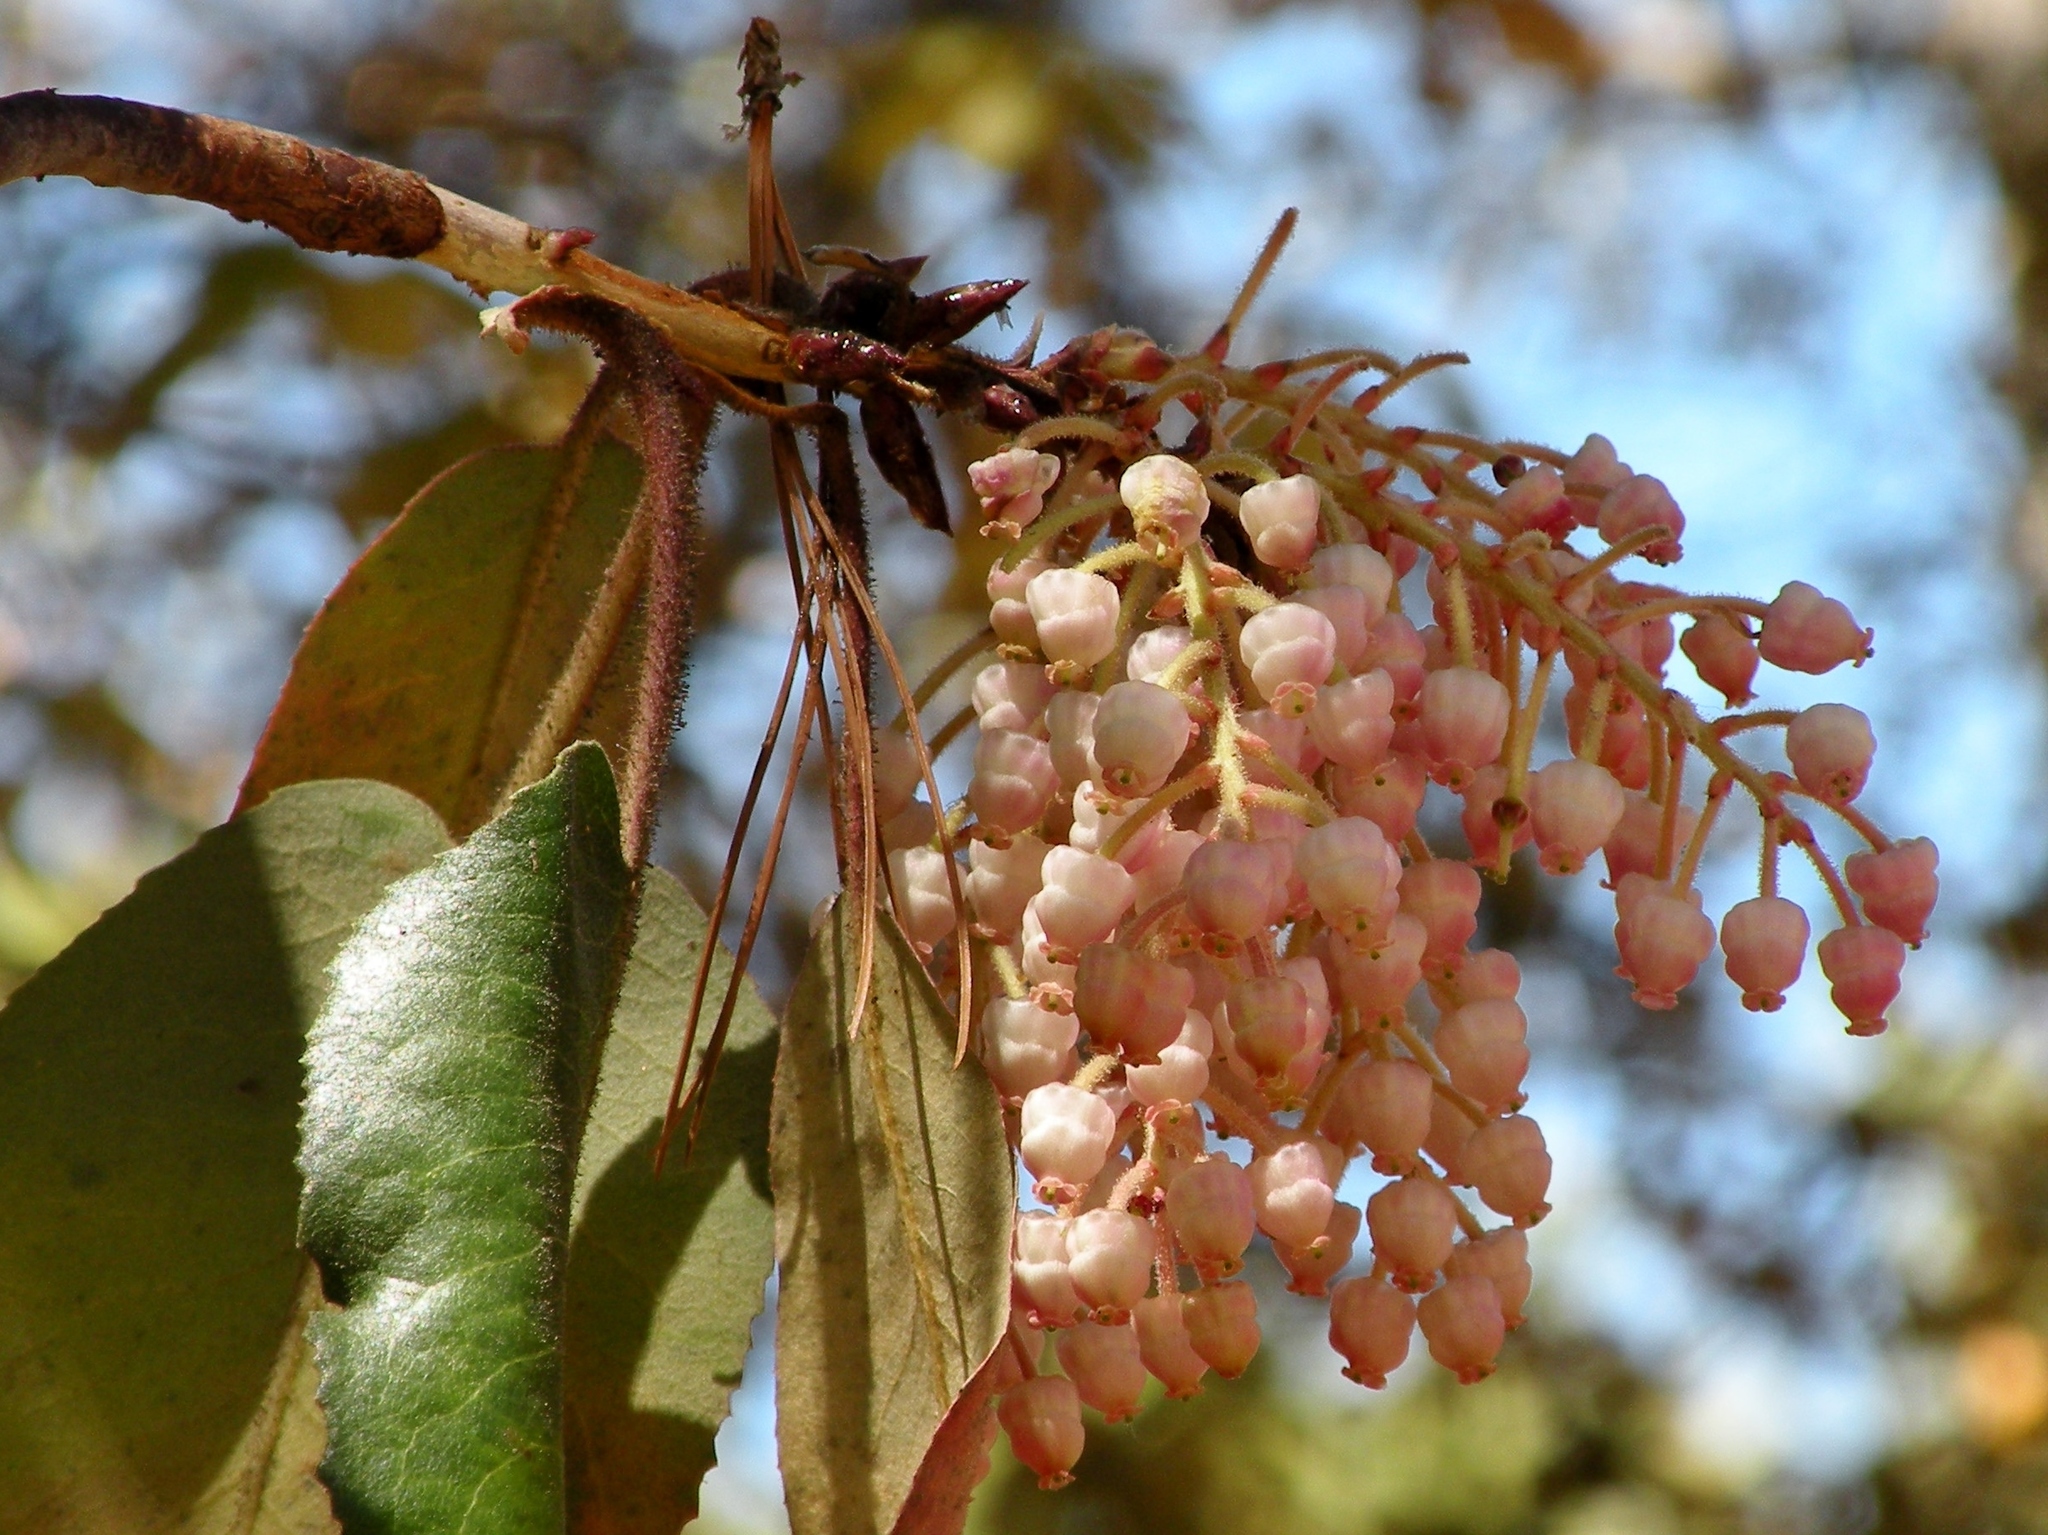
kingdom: Plantae
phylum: Tracheophyta
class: Magnoliopsida
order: Ericales
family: Ericaceae
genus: Arbutus
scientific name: Arbutus bicolor
